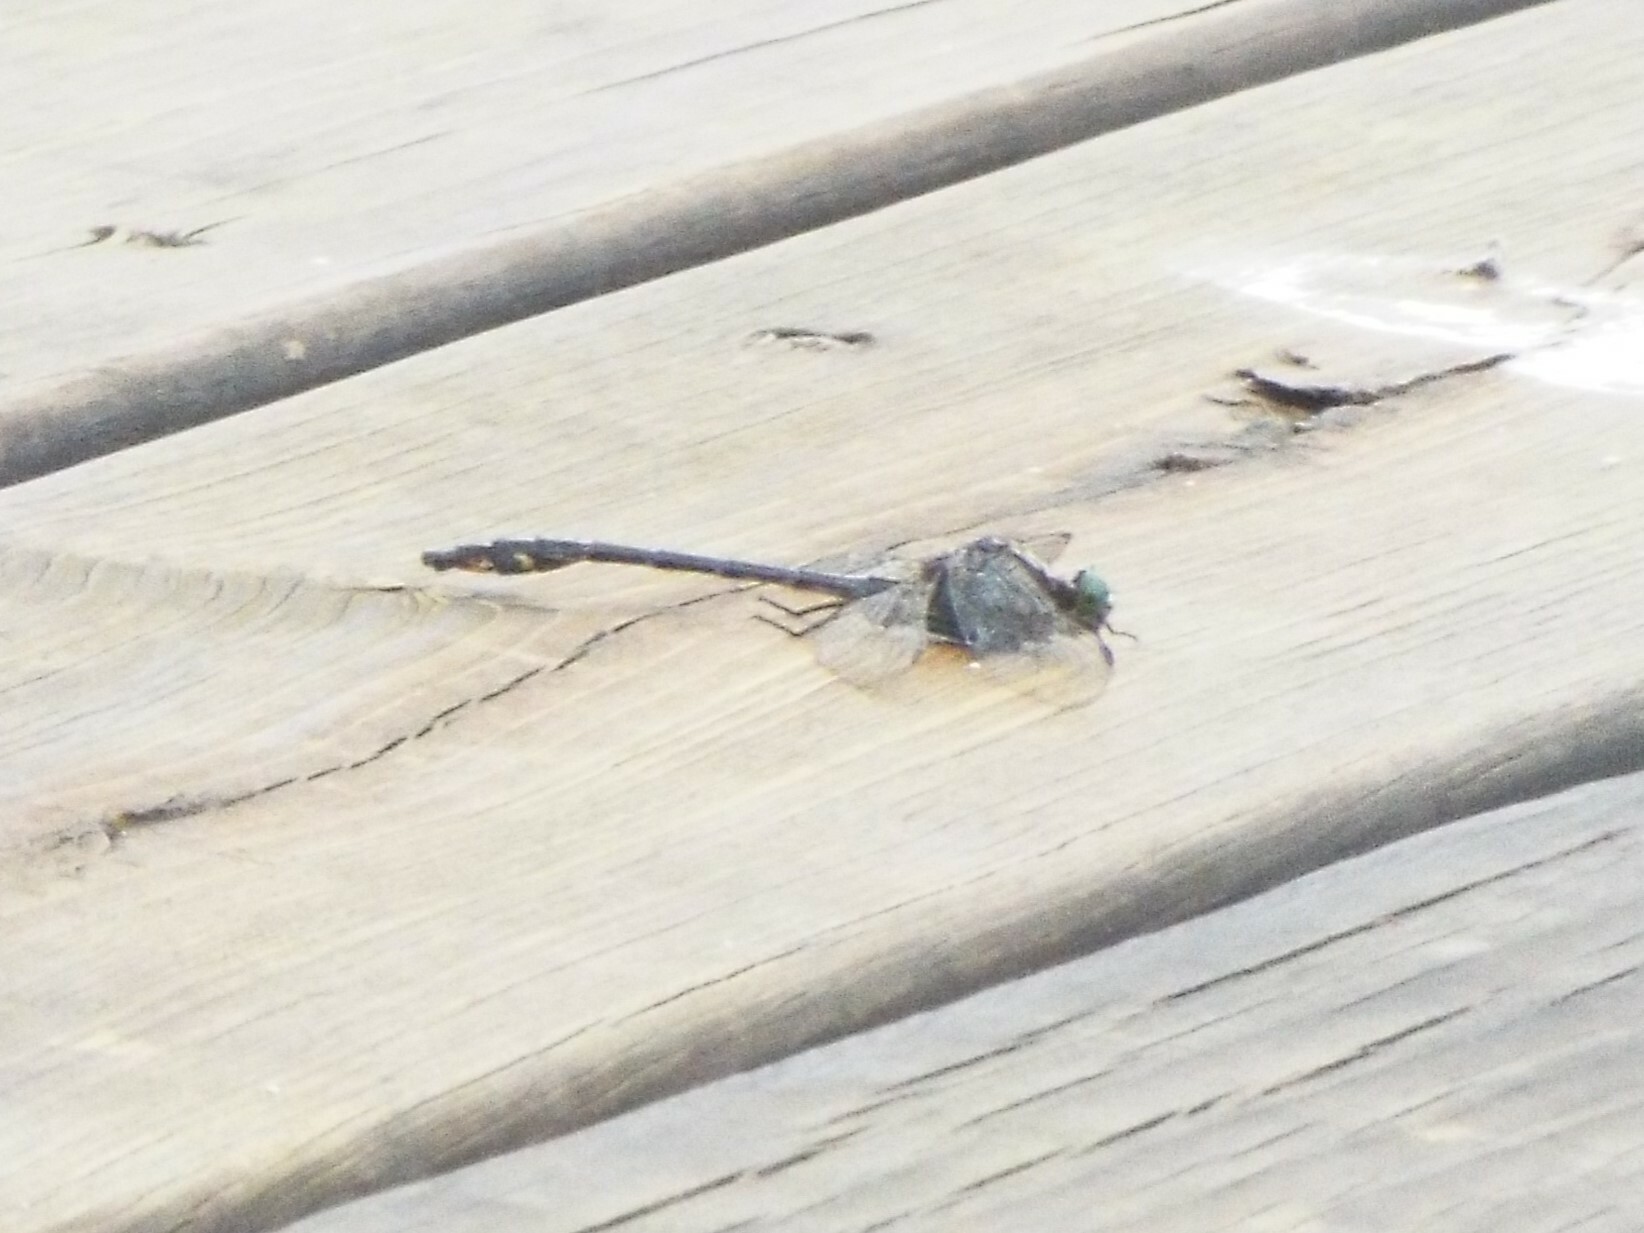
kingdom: Animalia
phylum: Arthropoda
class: Insecta
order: Odonata
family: Gomphidae
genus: Dromogomphus
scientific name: Dromogomphus spinosus
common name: Black-shouldered spinyleg
